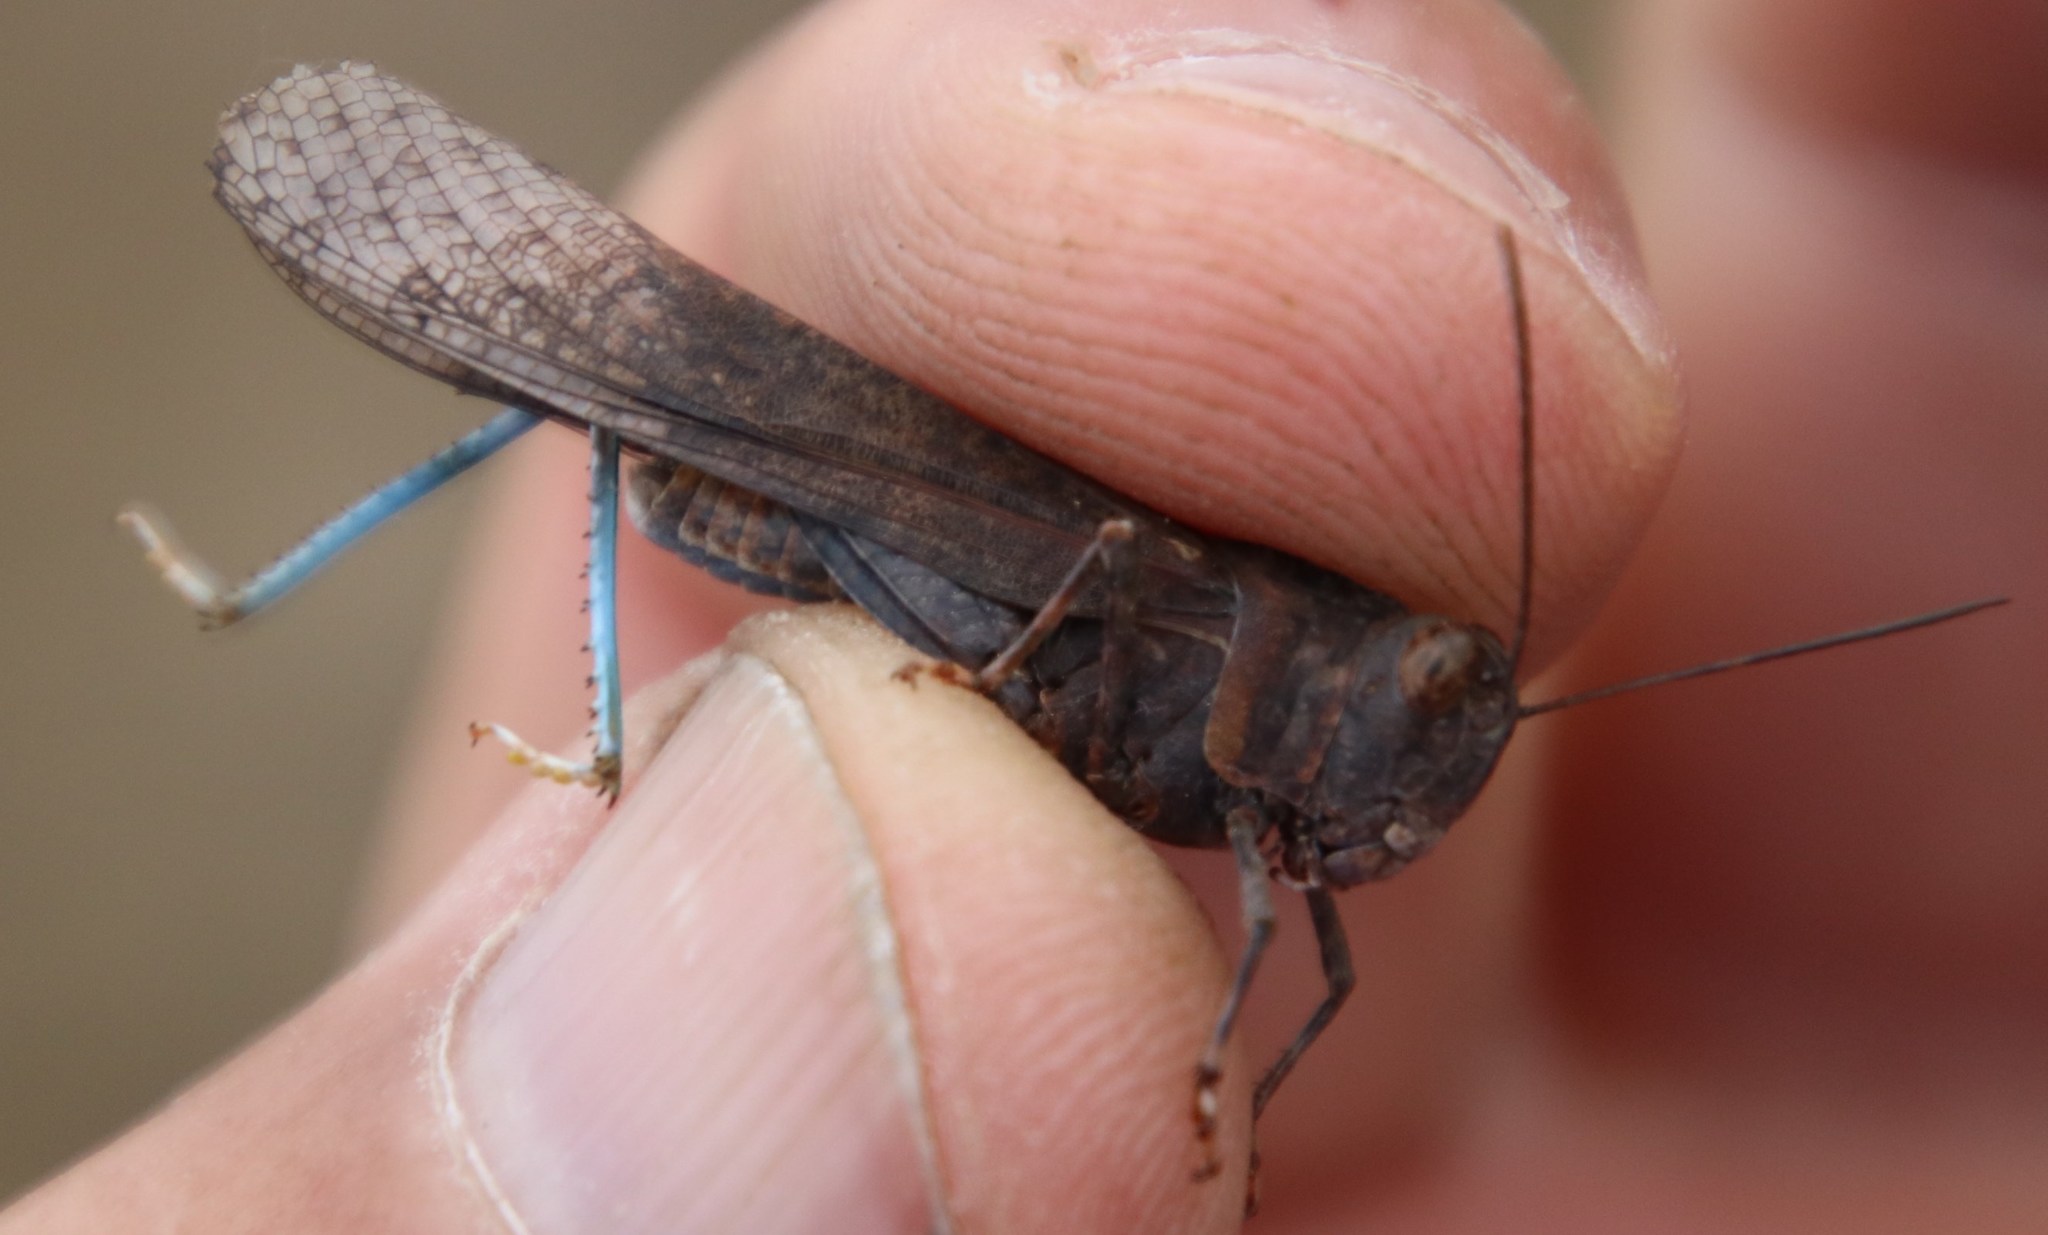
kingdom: Animalia
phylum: Arthropoda
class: Insecta
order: Orthoptera
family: Acrididae
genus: Scintharista
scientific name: Scintharista magnifica
